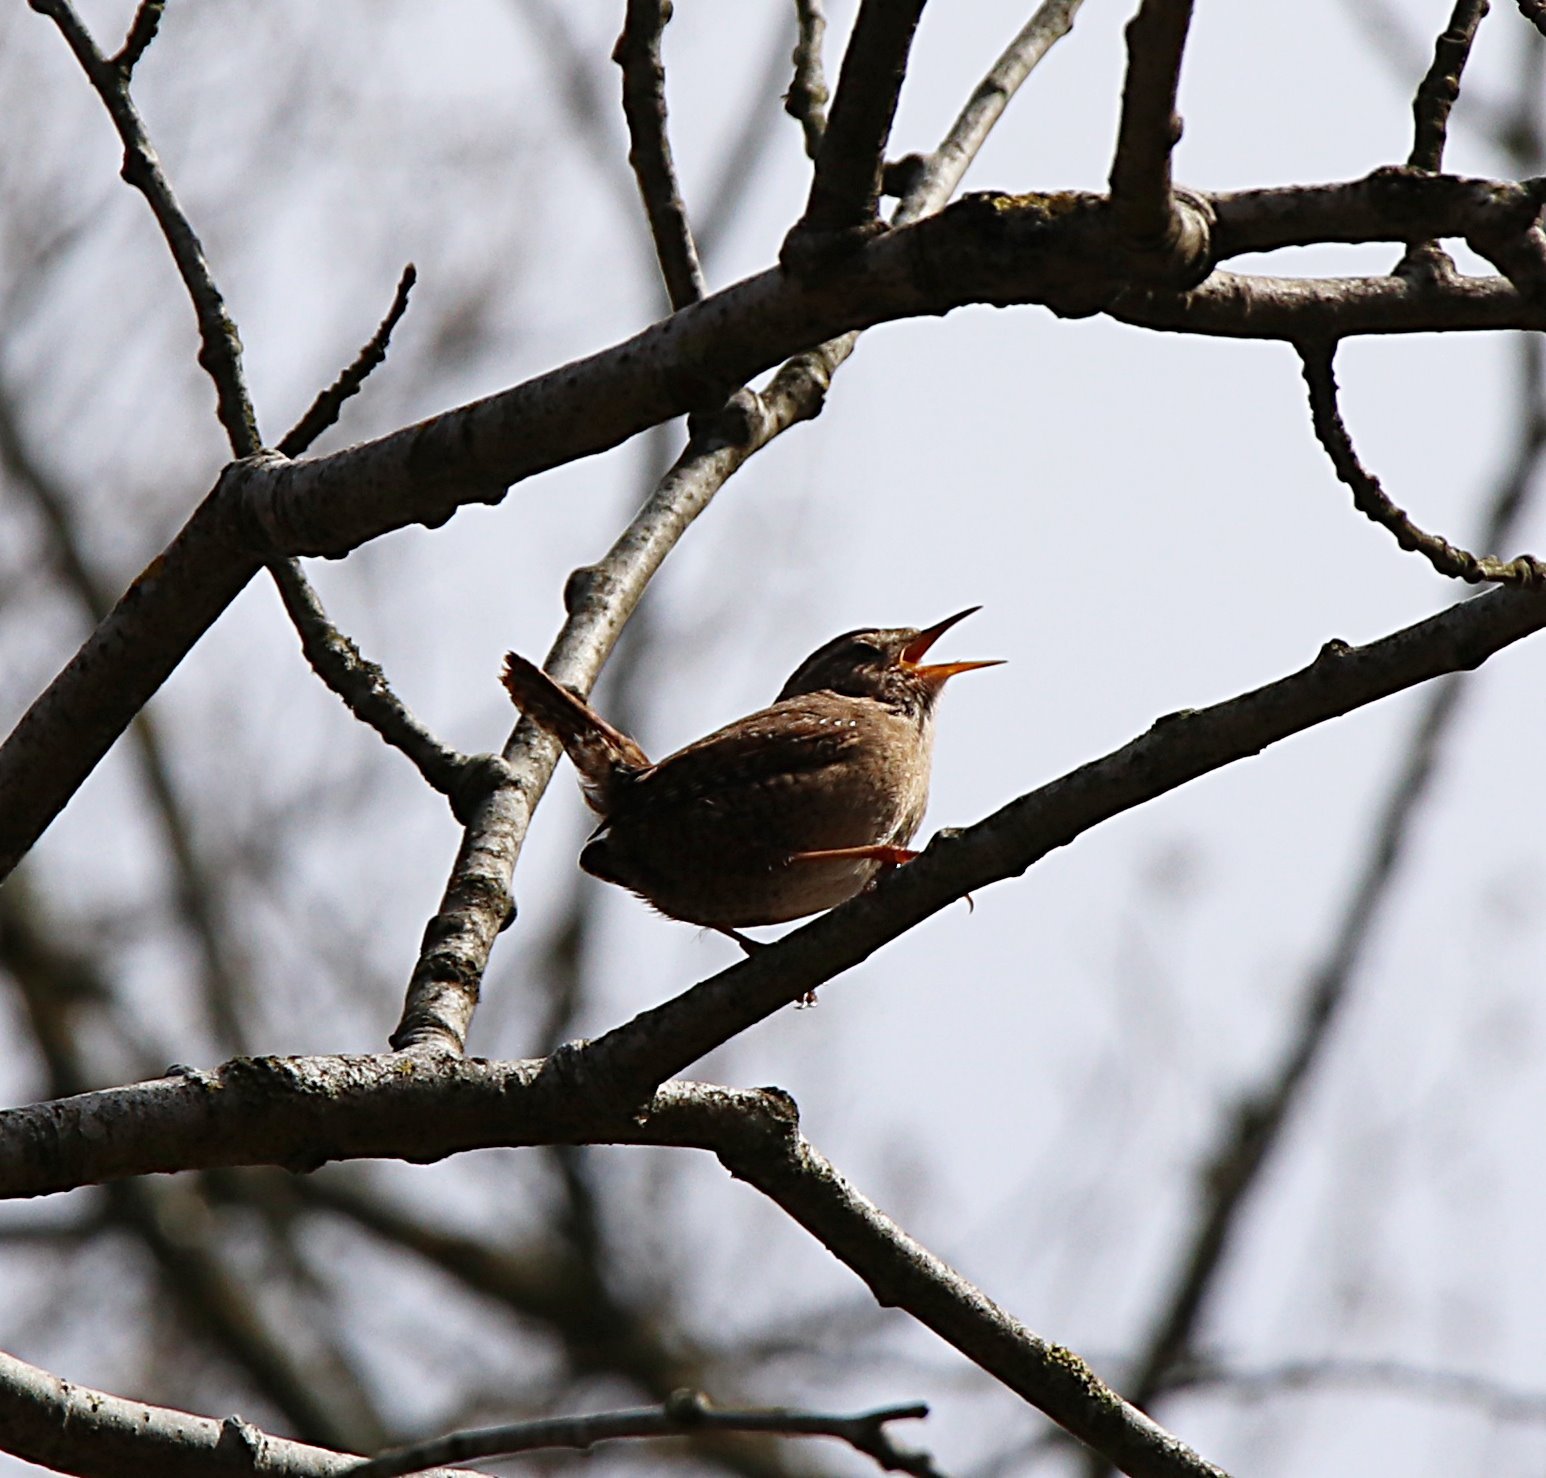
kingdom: Animalia
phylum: Chordata
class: Aves
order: Passeriformes
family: Troglodytidae
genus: Troglodytes
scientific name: Troglodytes troglodytes
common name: Eurasian wren
